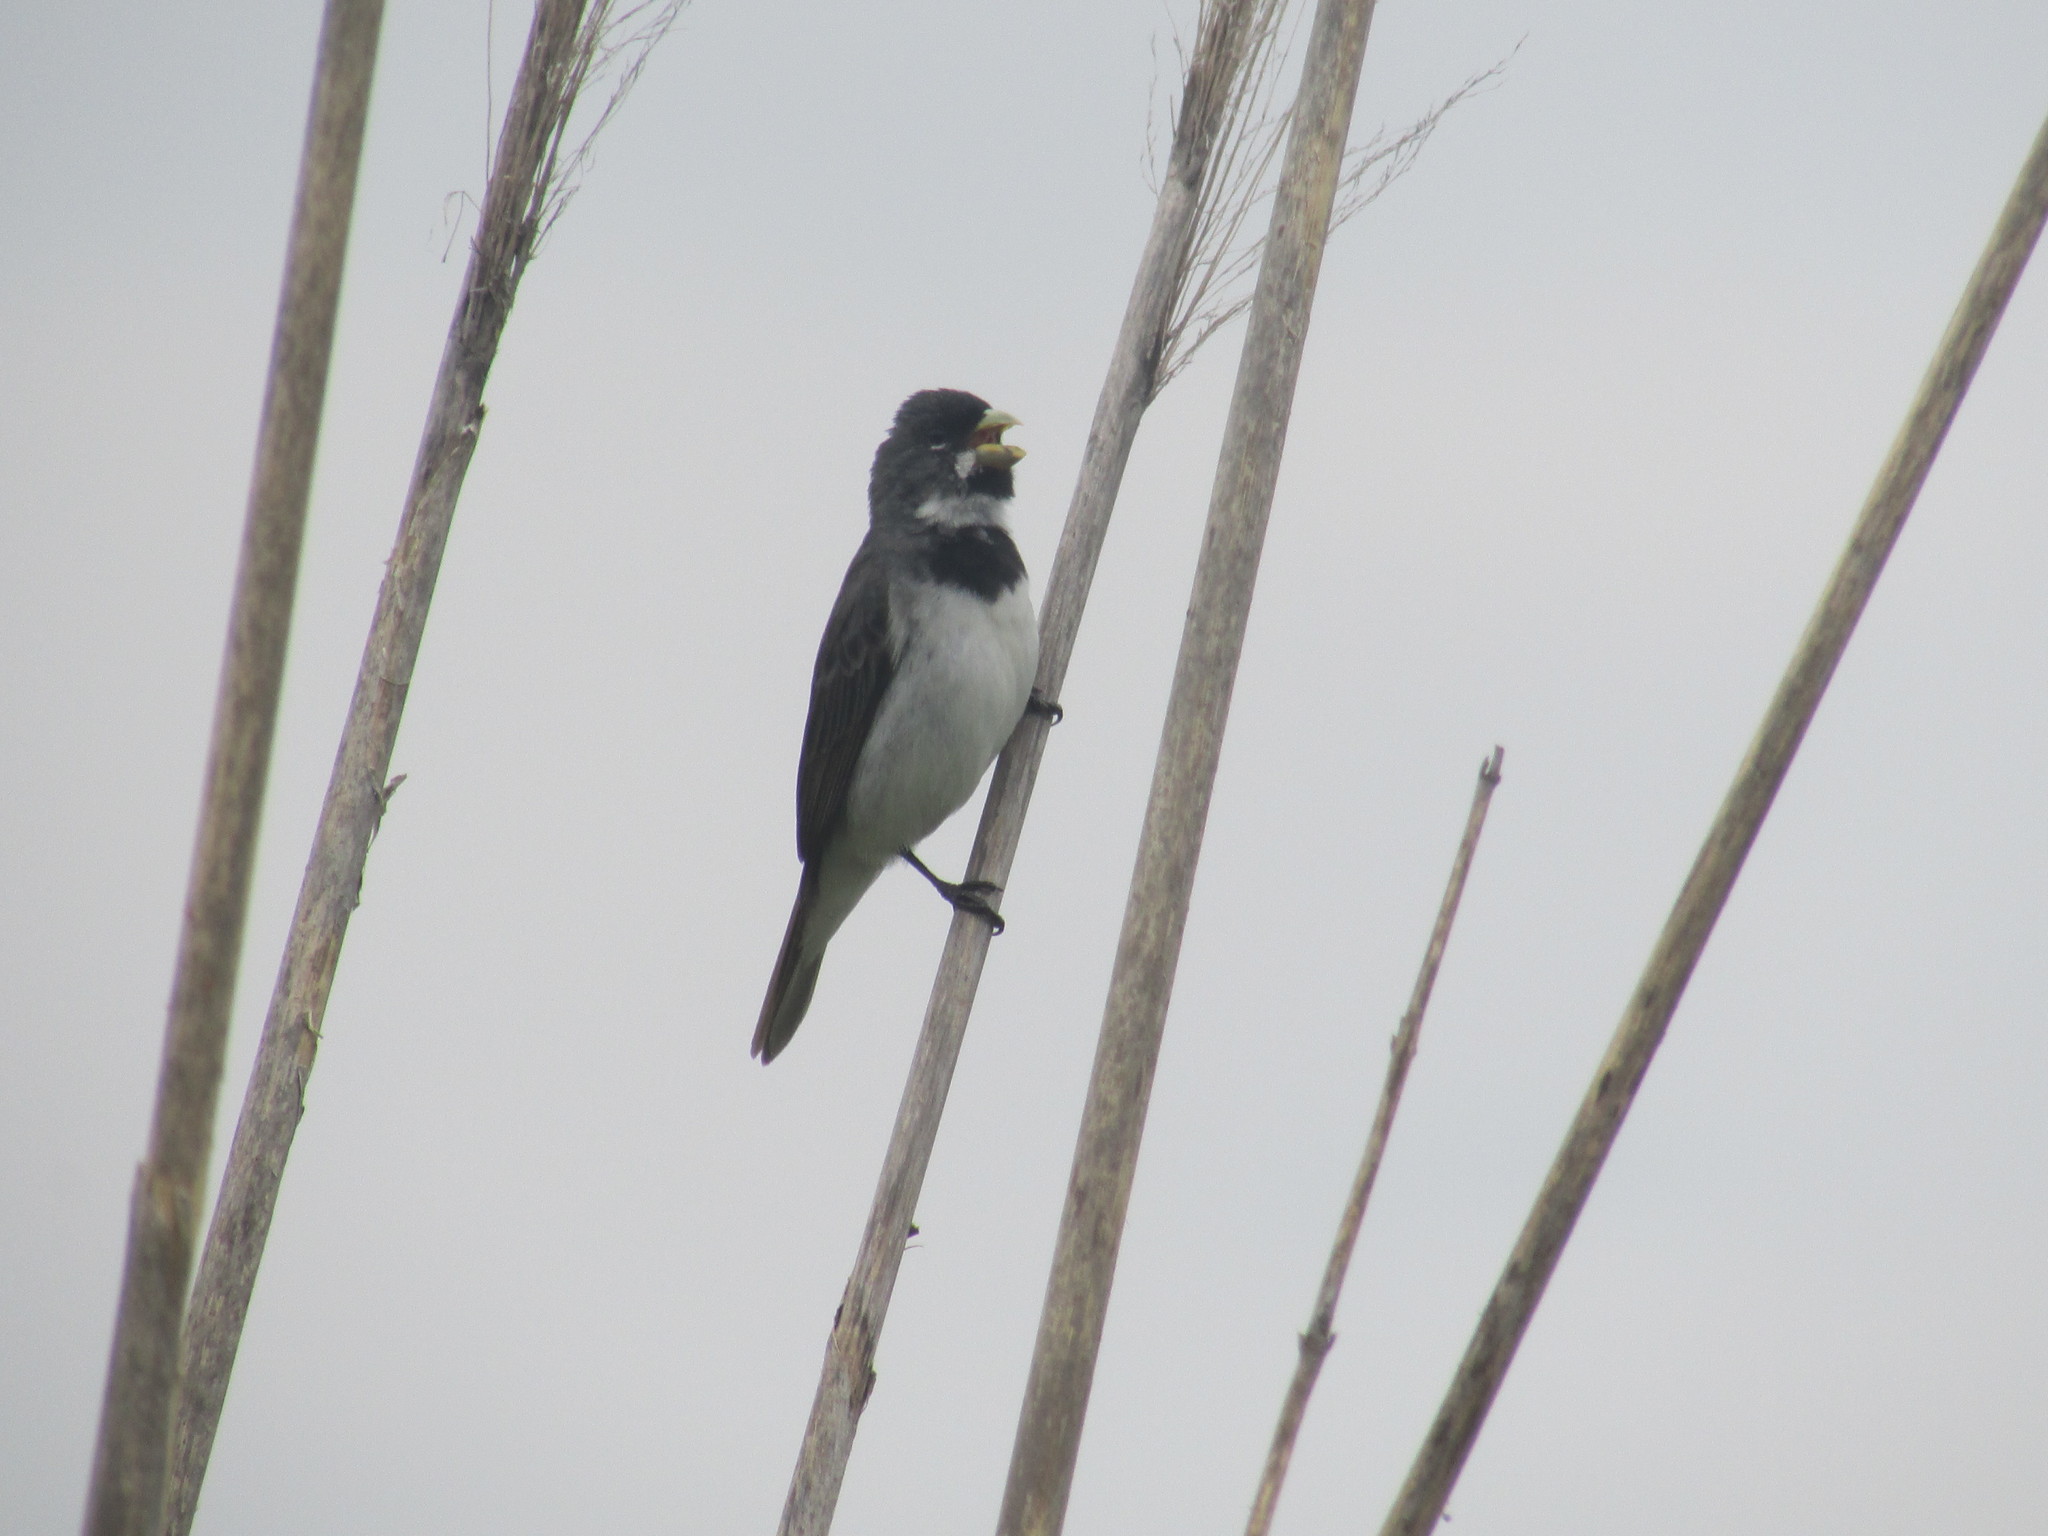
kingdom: Animalia
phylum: Chordata
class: Aves
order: Passeriformes
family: Thraupidae
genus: Sporophila
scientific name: Sporophila caerulescens
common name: Double-collared seedeater
